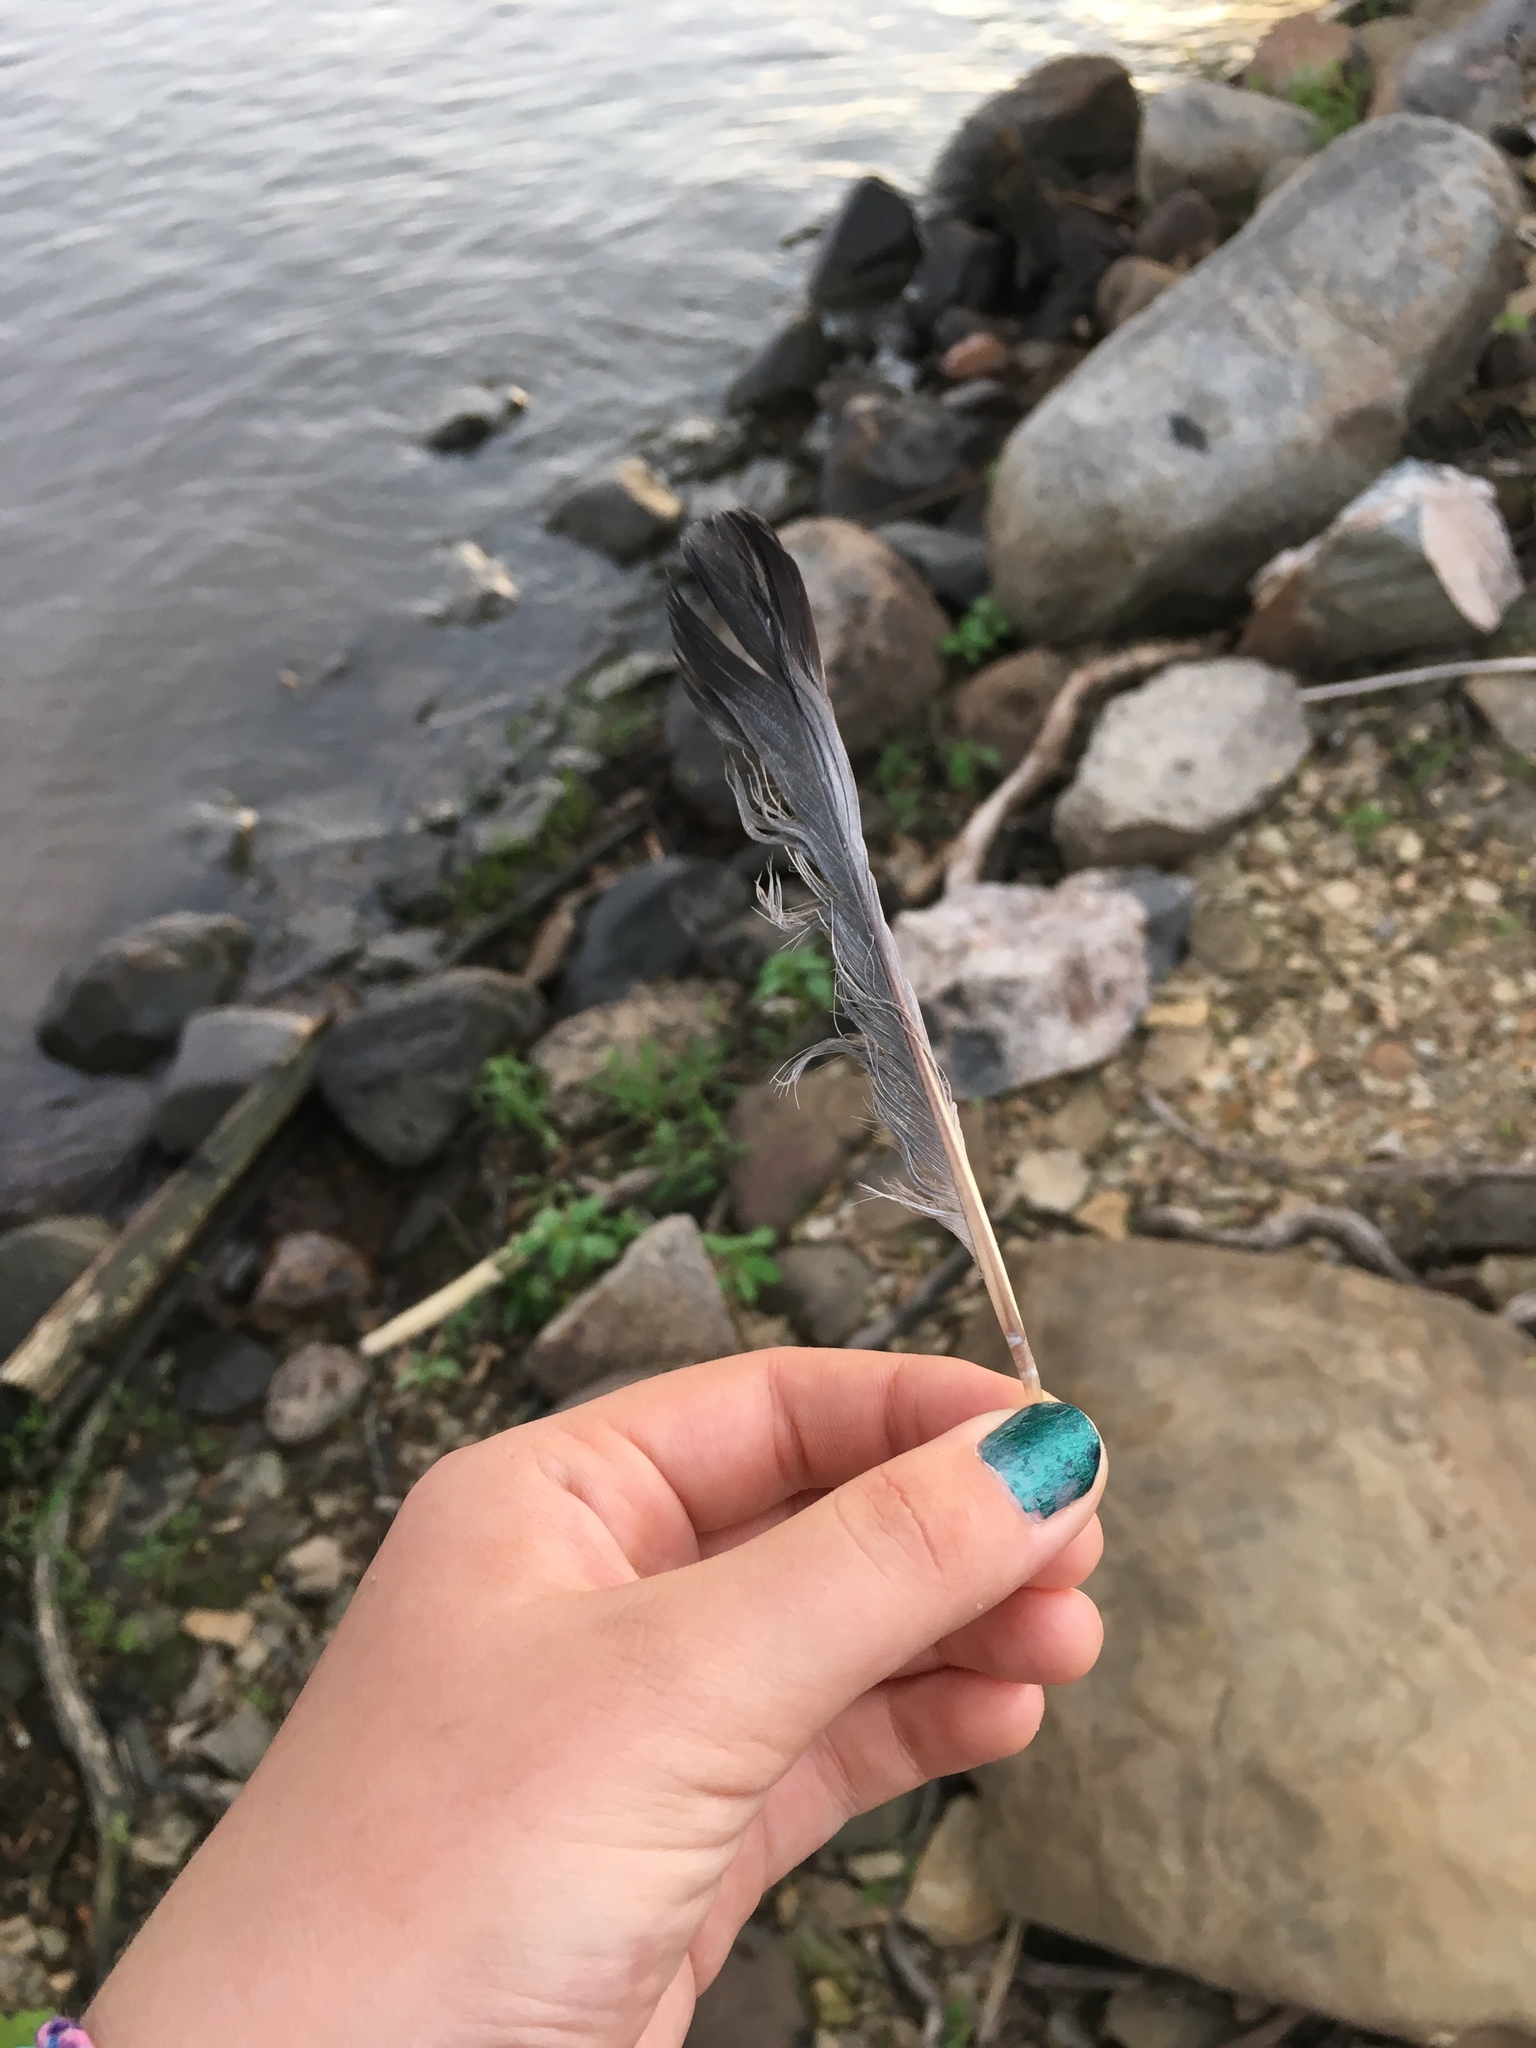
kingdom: Animalia
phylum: Chordata
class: Aves
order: Columbiformes
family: Columbidae
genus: Columba
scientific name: Columba livia
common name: Rock pigeon
